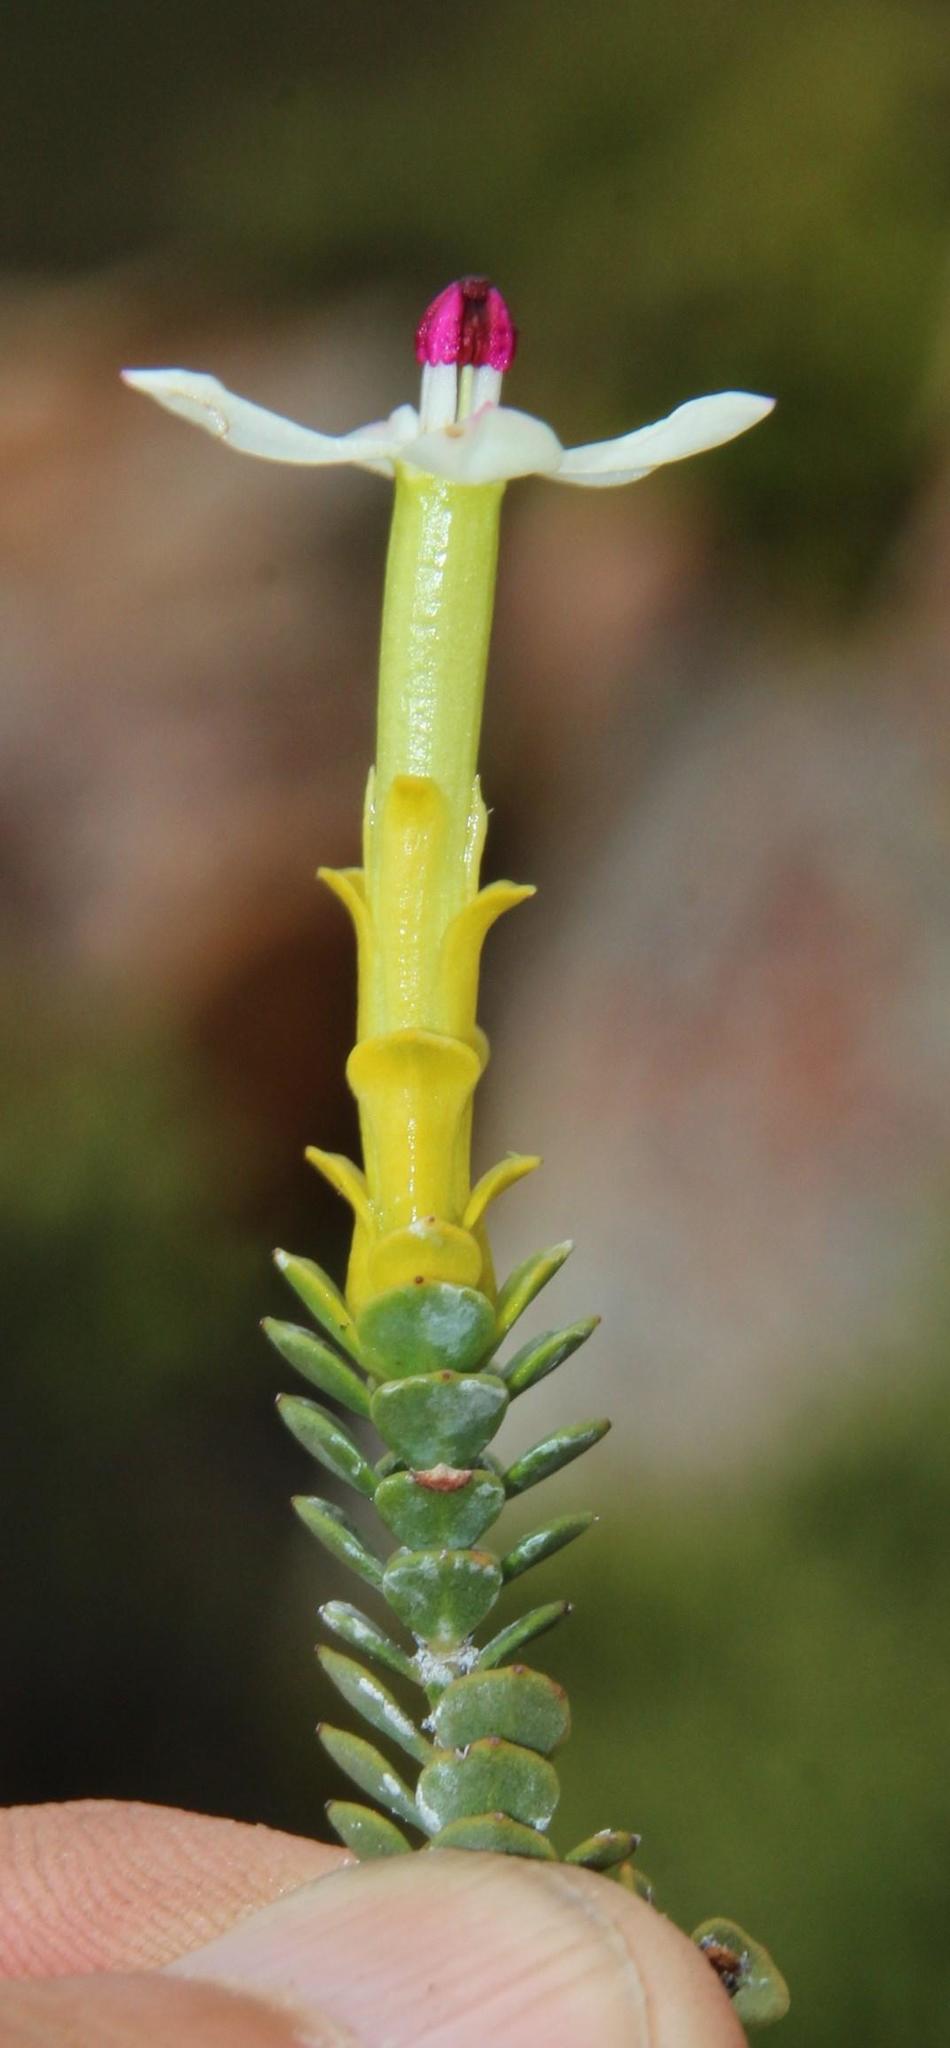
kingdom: Plantae
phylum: Tracheophyta
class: Magnoliopsida
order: Myrtales
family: Penaeaceae
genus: Saltera
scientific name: Saltera sarcocolla
